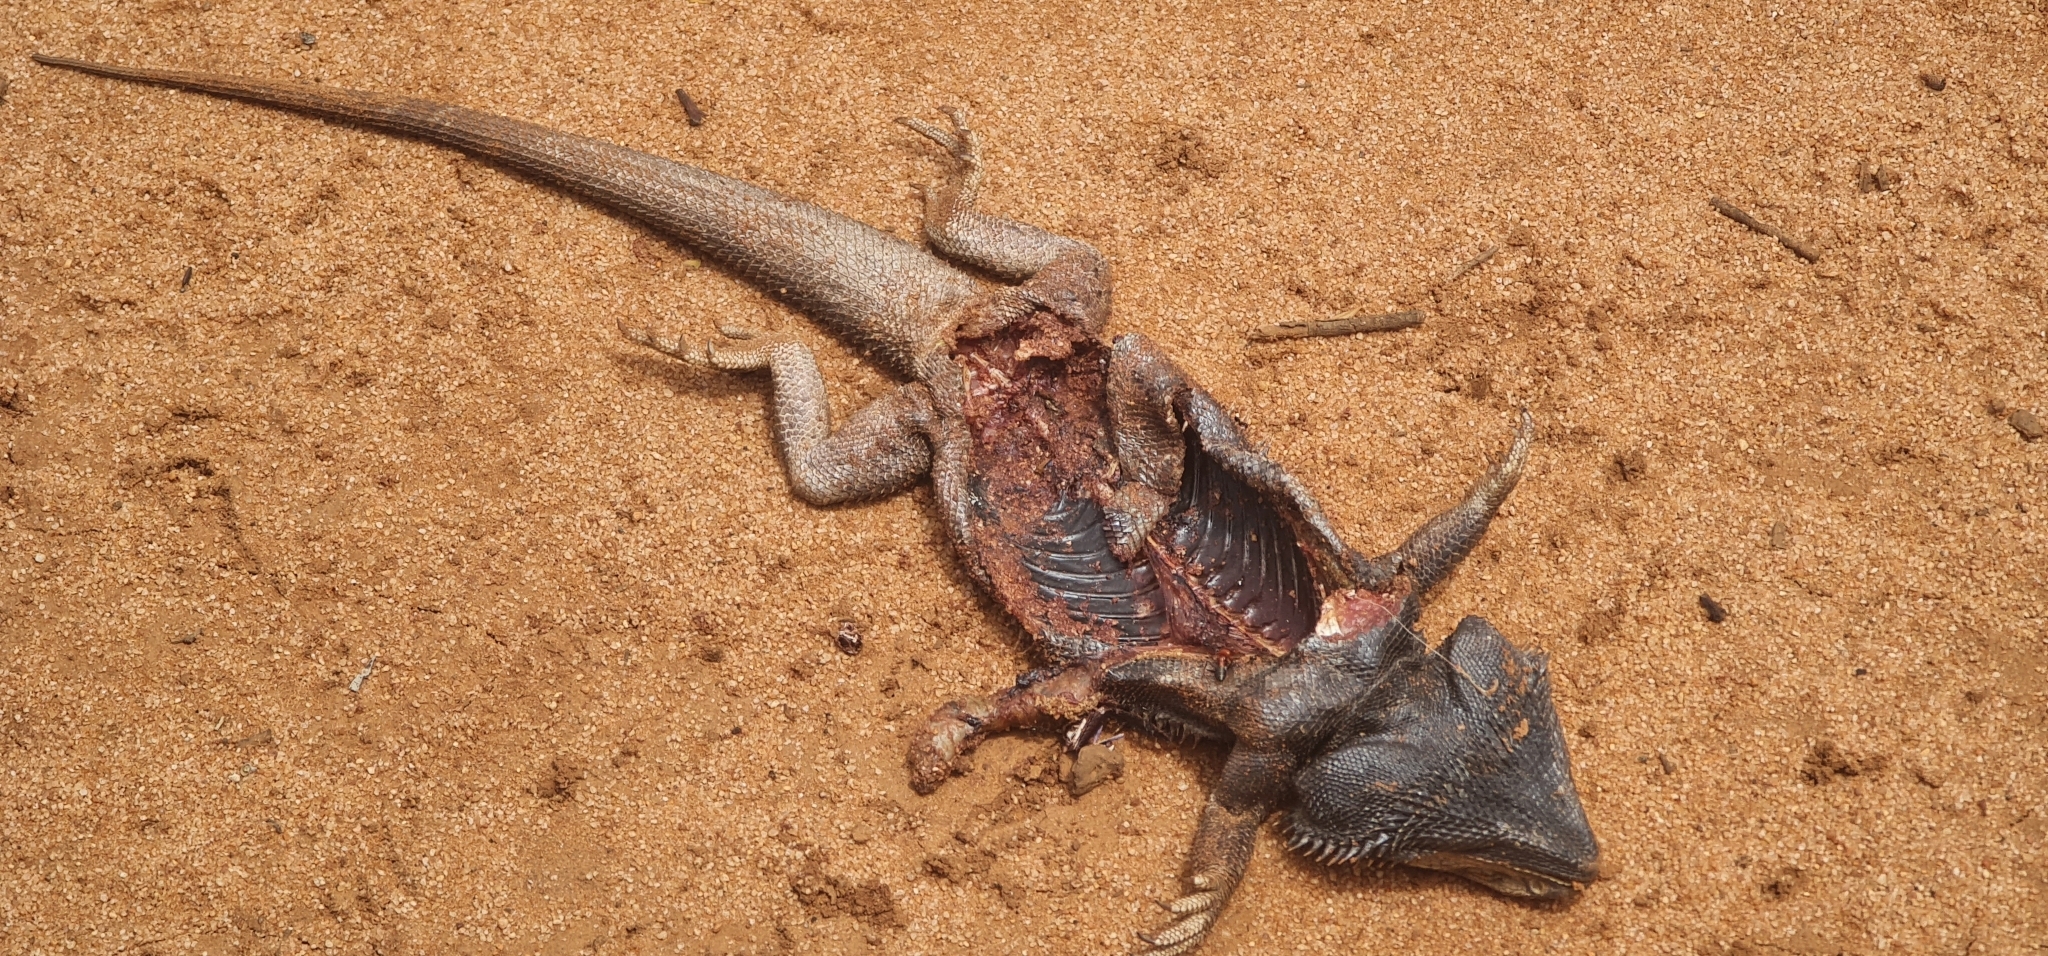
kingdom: Animalia
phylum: Chordata
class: Squamata
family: Agamidae
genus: Pogona
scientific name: Pogona vitticeps
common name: Central bearded dragon
